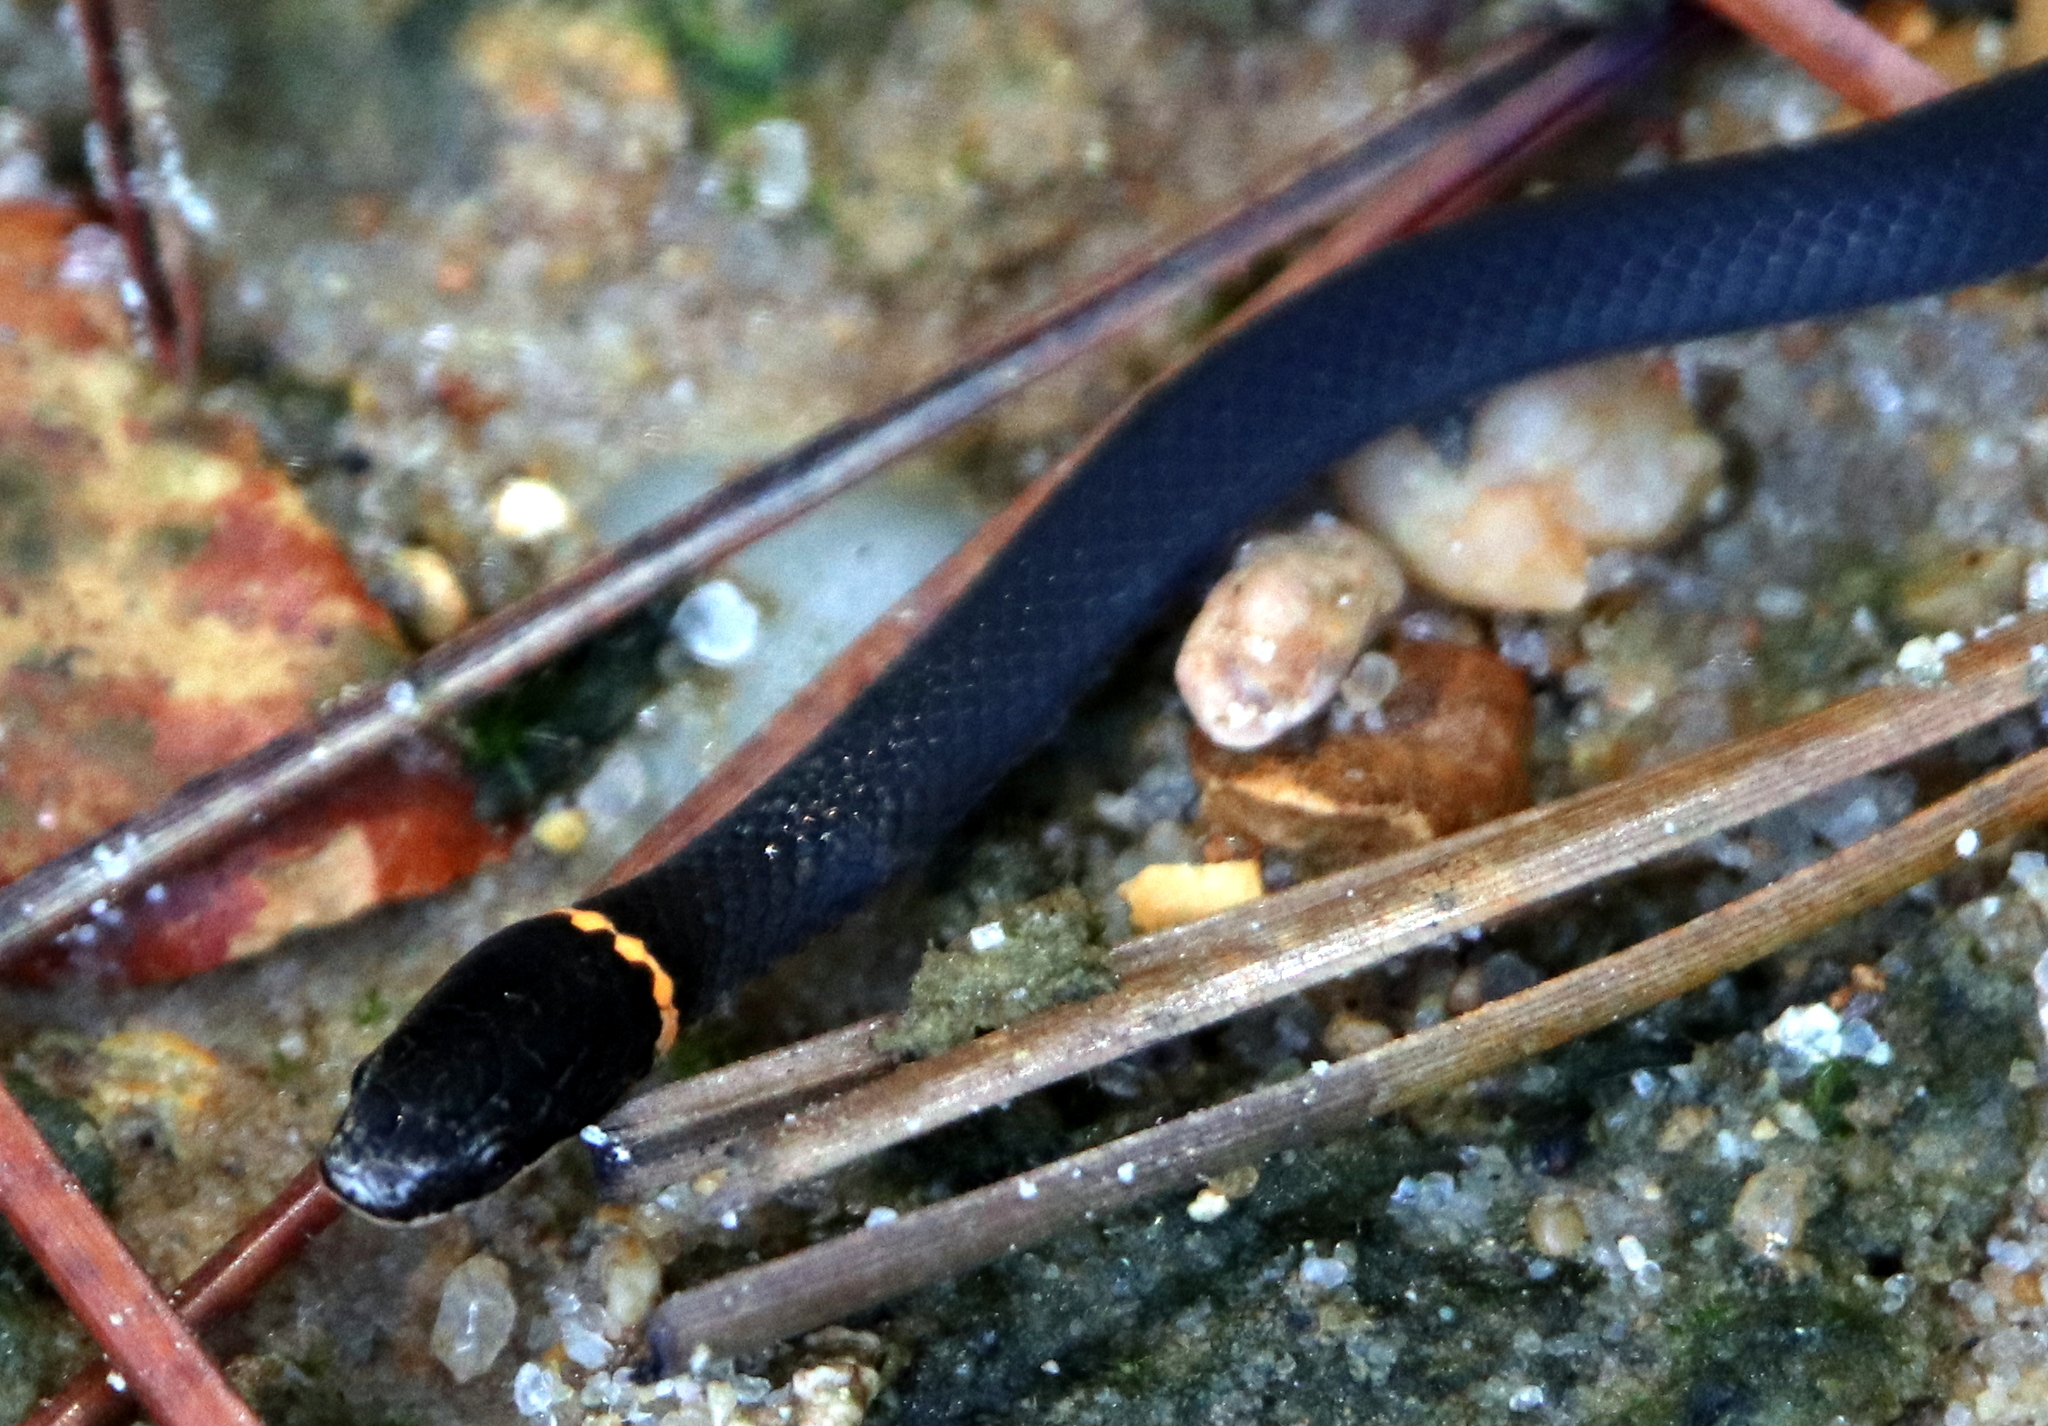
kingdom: Animalia
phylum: Chordata
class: Squamata
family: Colubridae
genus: Diadophis
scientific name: Diadophis punctatus
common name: Ringneck snake
